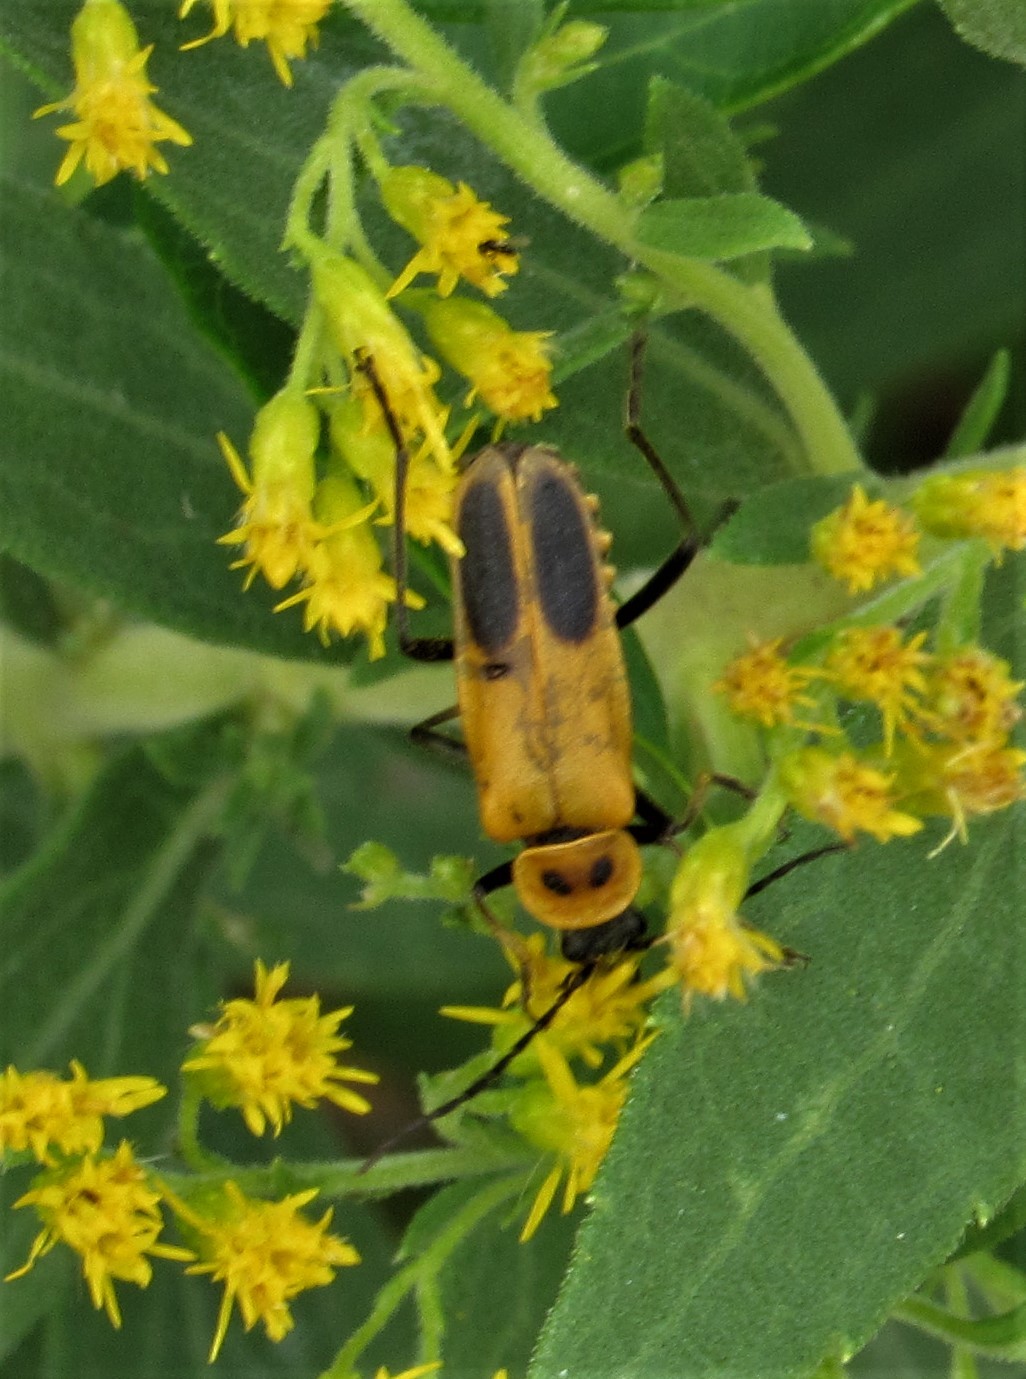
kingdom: Animalia
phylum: Arthropoda
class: Insecta
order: Coleoptera
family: Cantharidae
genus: Chauliognathus
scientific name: Chauliognathus pensylvanicus
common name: Goldenrod soldier beetle
